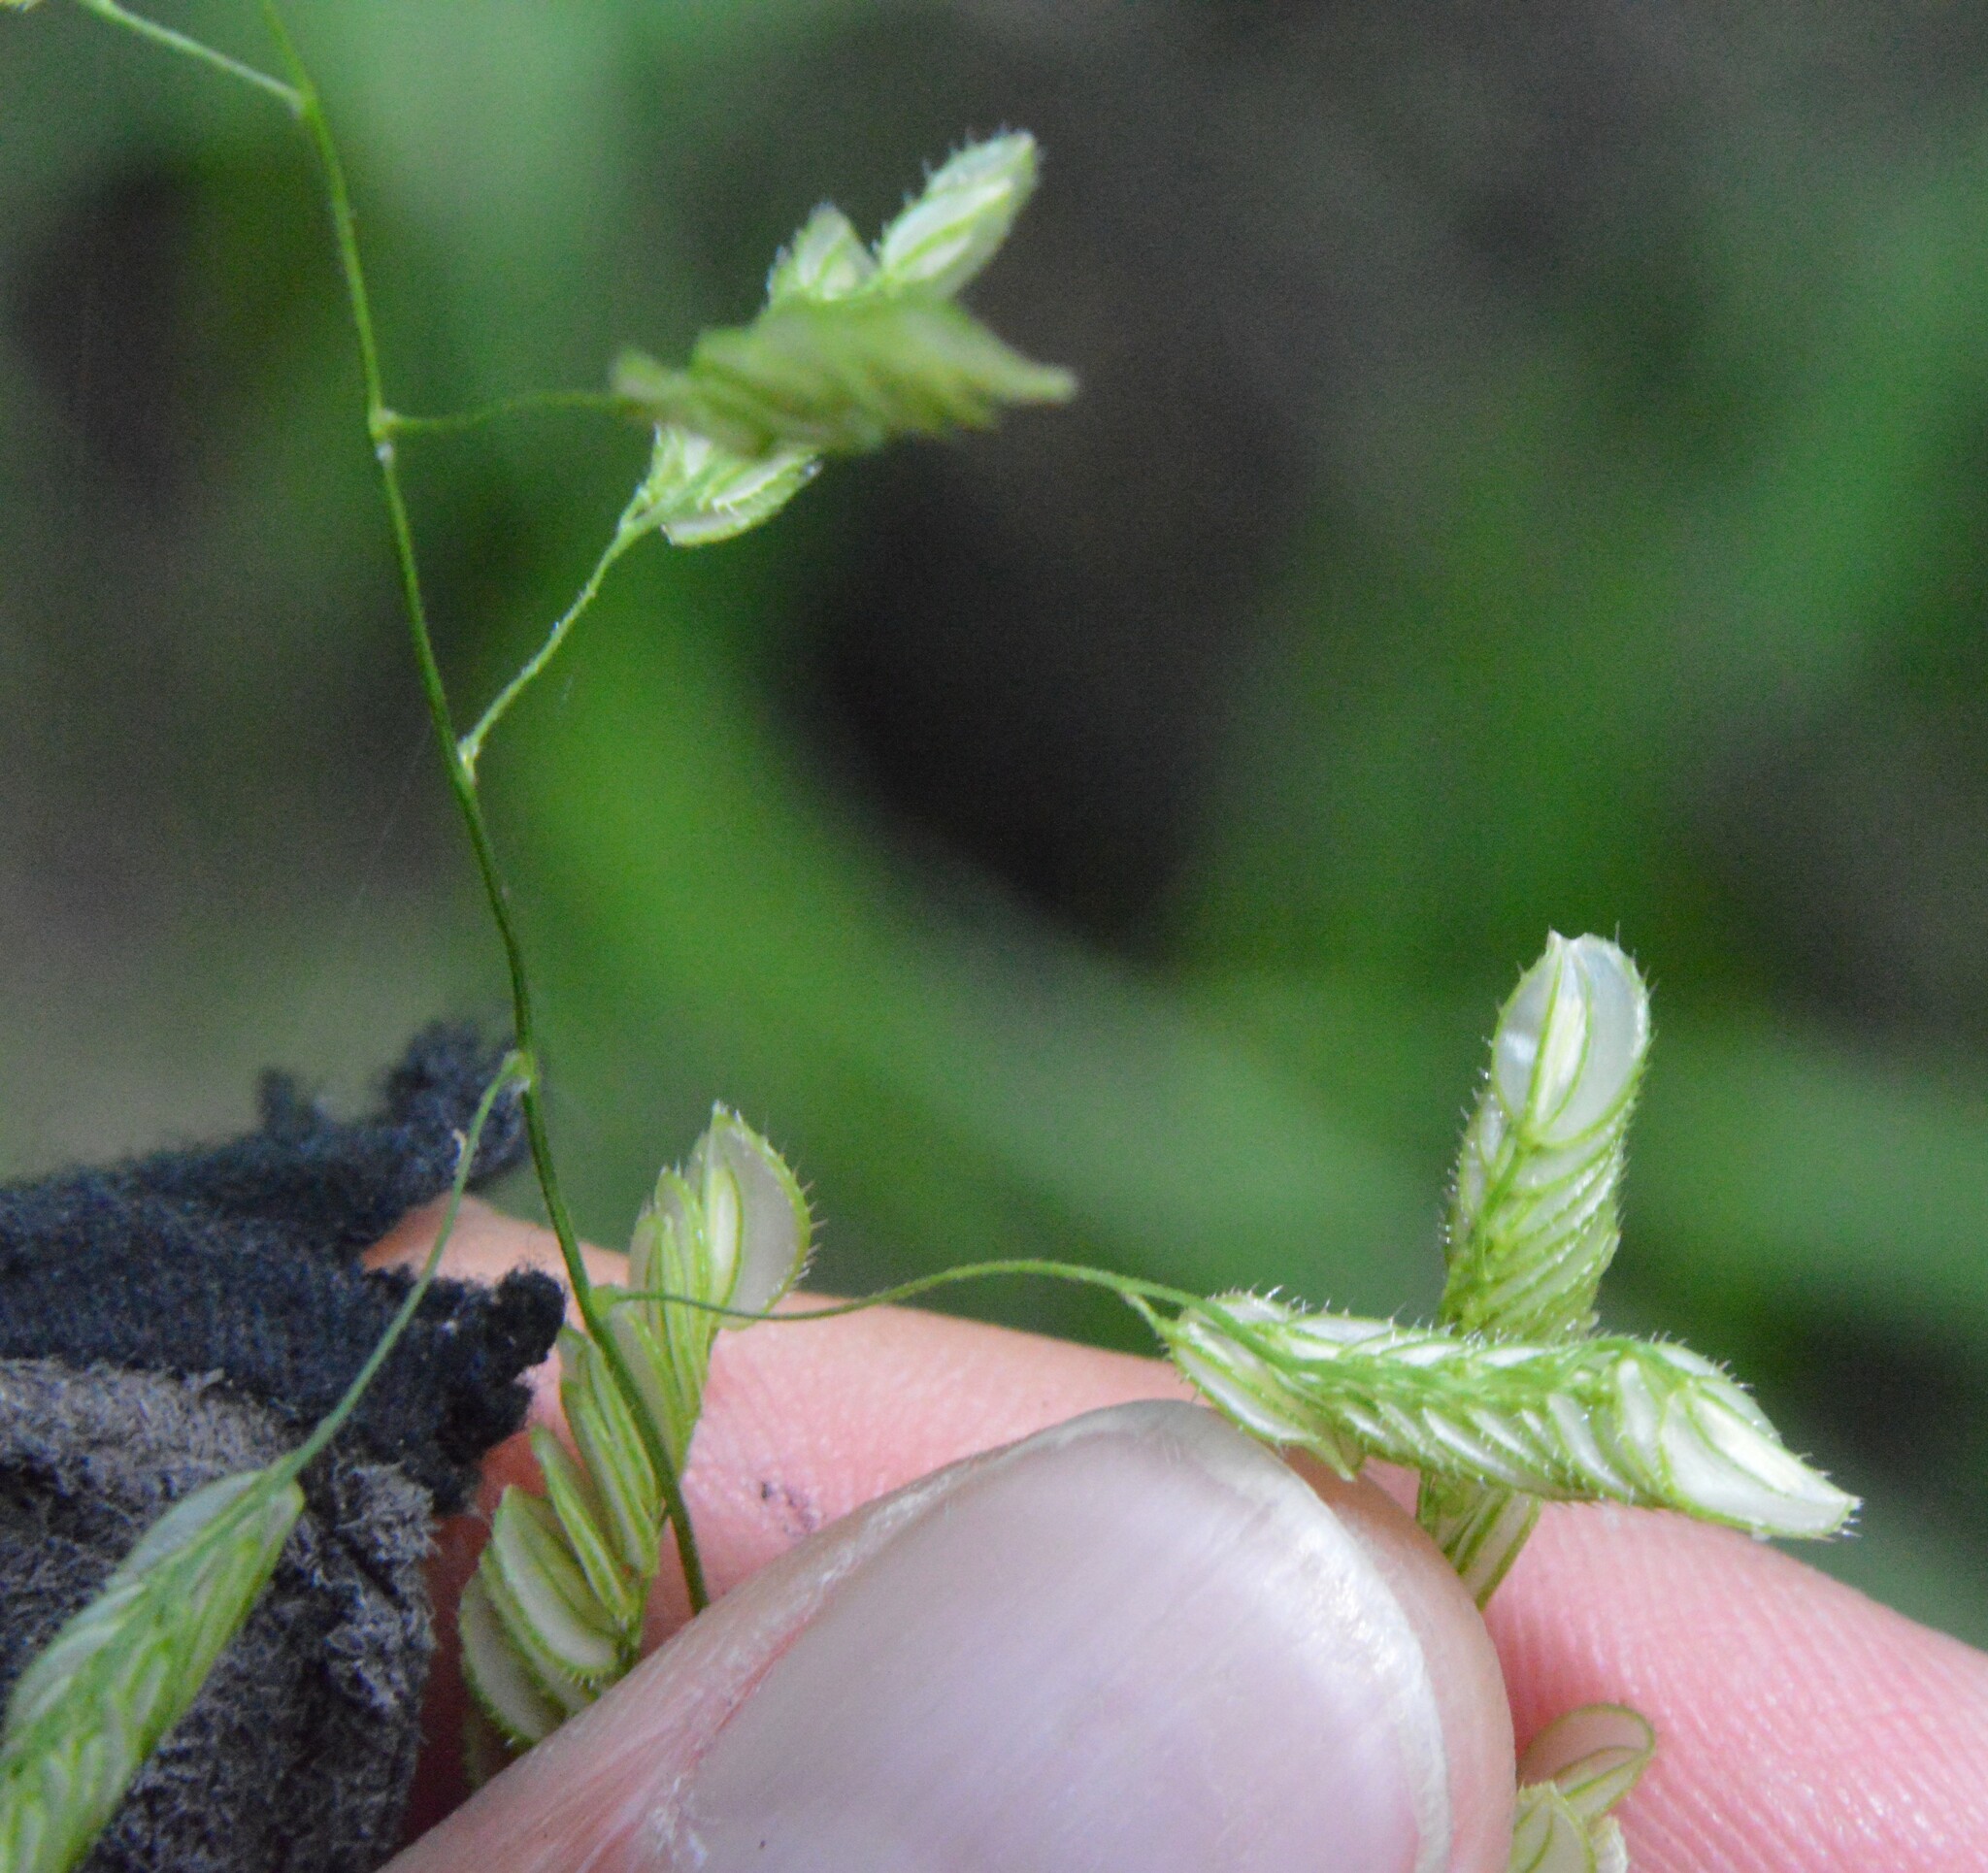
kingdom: Plantae
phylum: Tracheophyta
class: Liliopsida
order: Poales
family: Poaceae
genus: Leersia
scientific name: Leersia lenticularis
